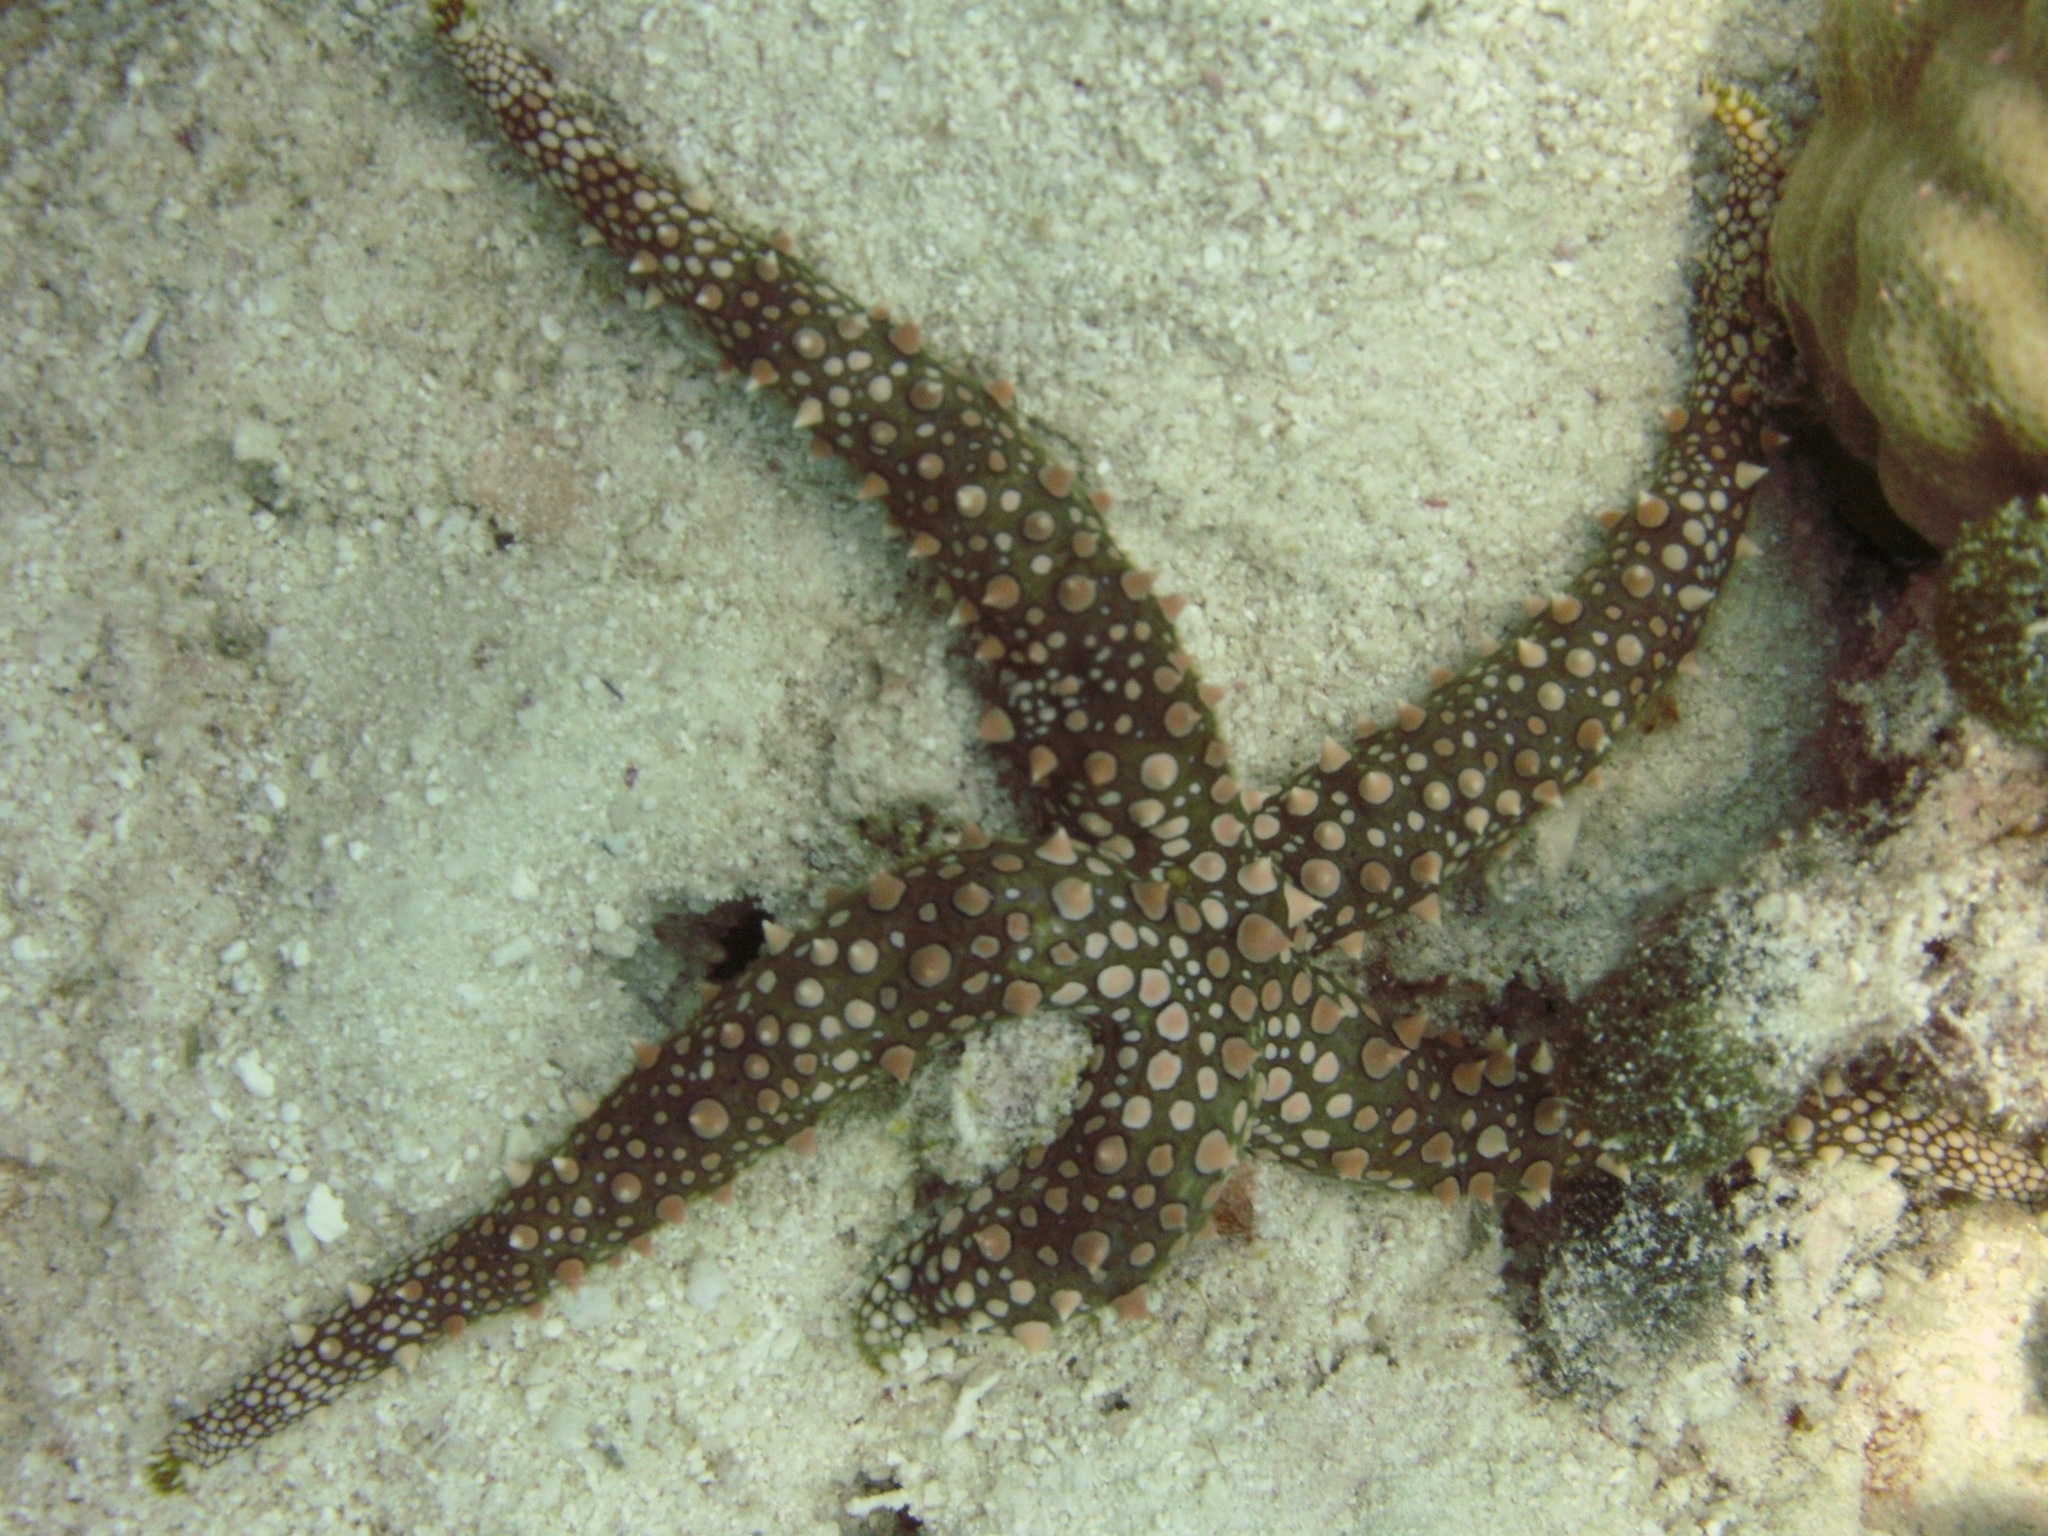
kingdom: Animalia
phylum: Echinodermata
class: Asteroidea
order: Valvatida
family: Ophidiasteridae
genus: Gomophia
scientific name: Gomophia egyptiaca
